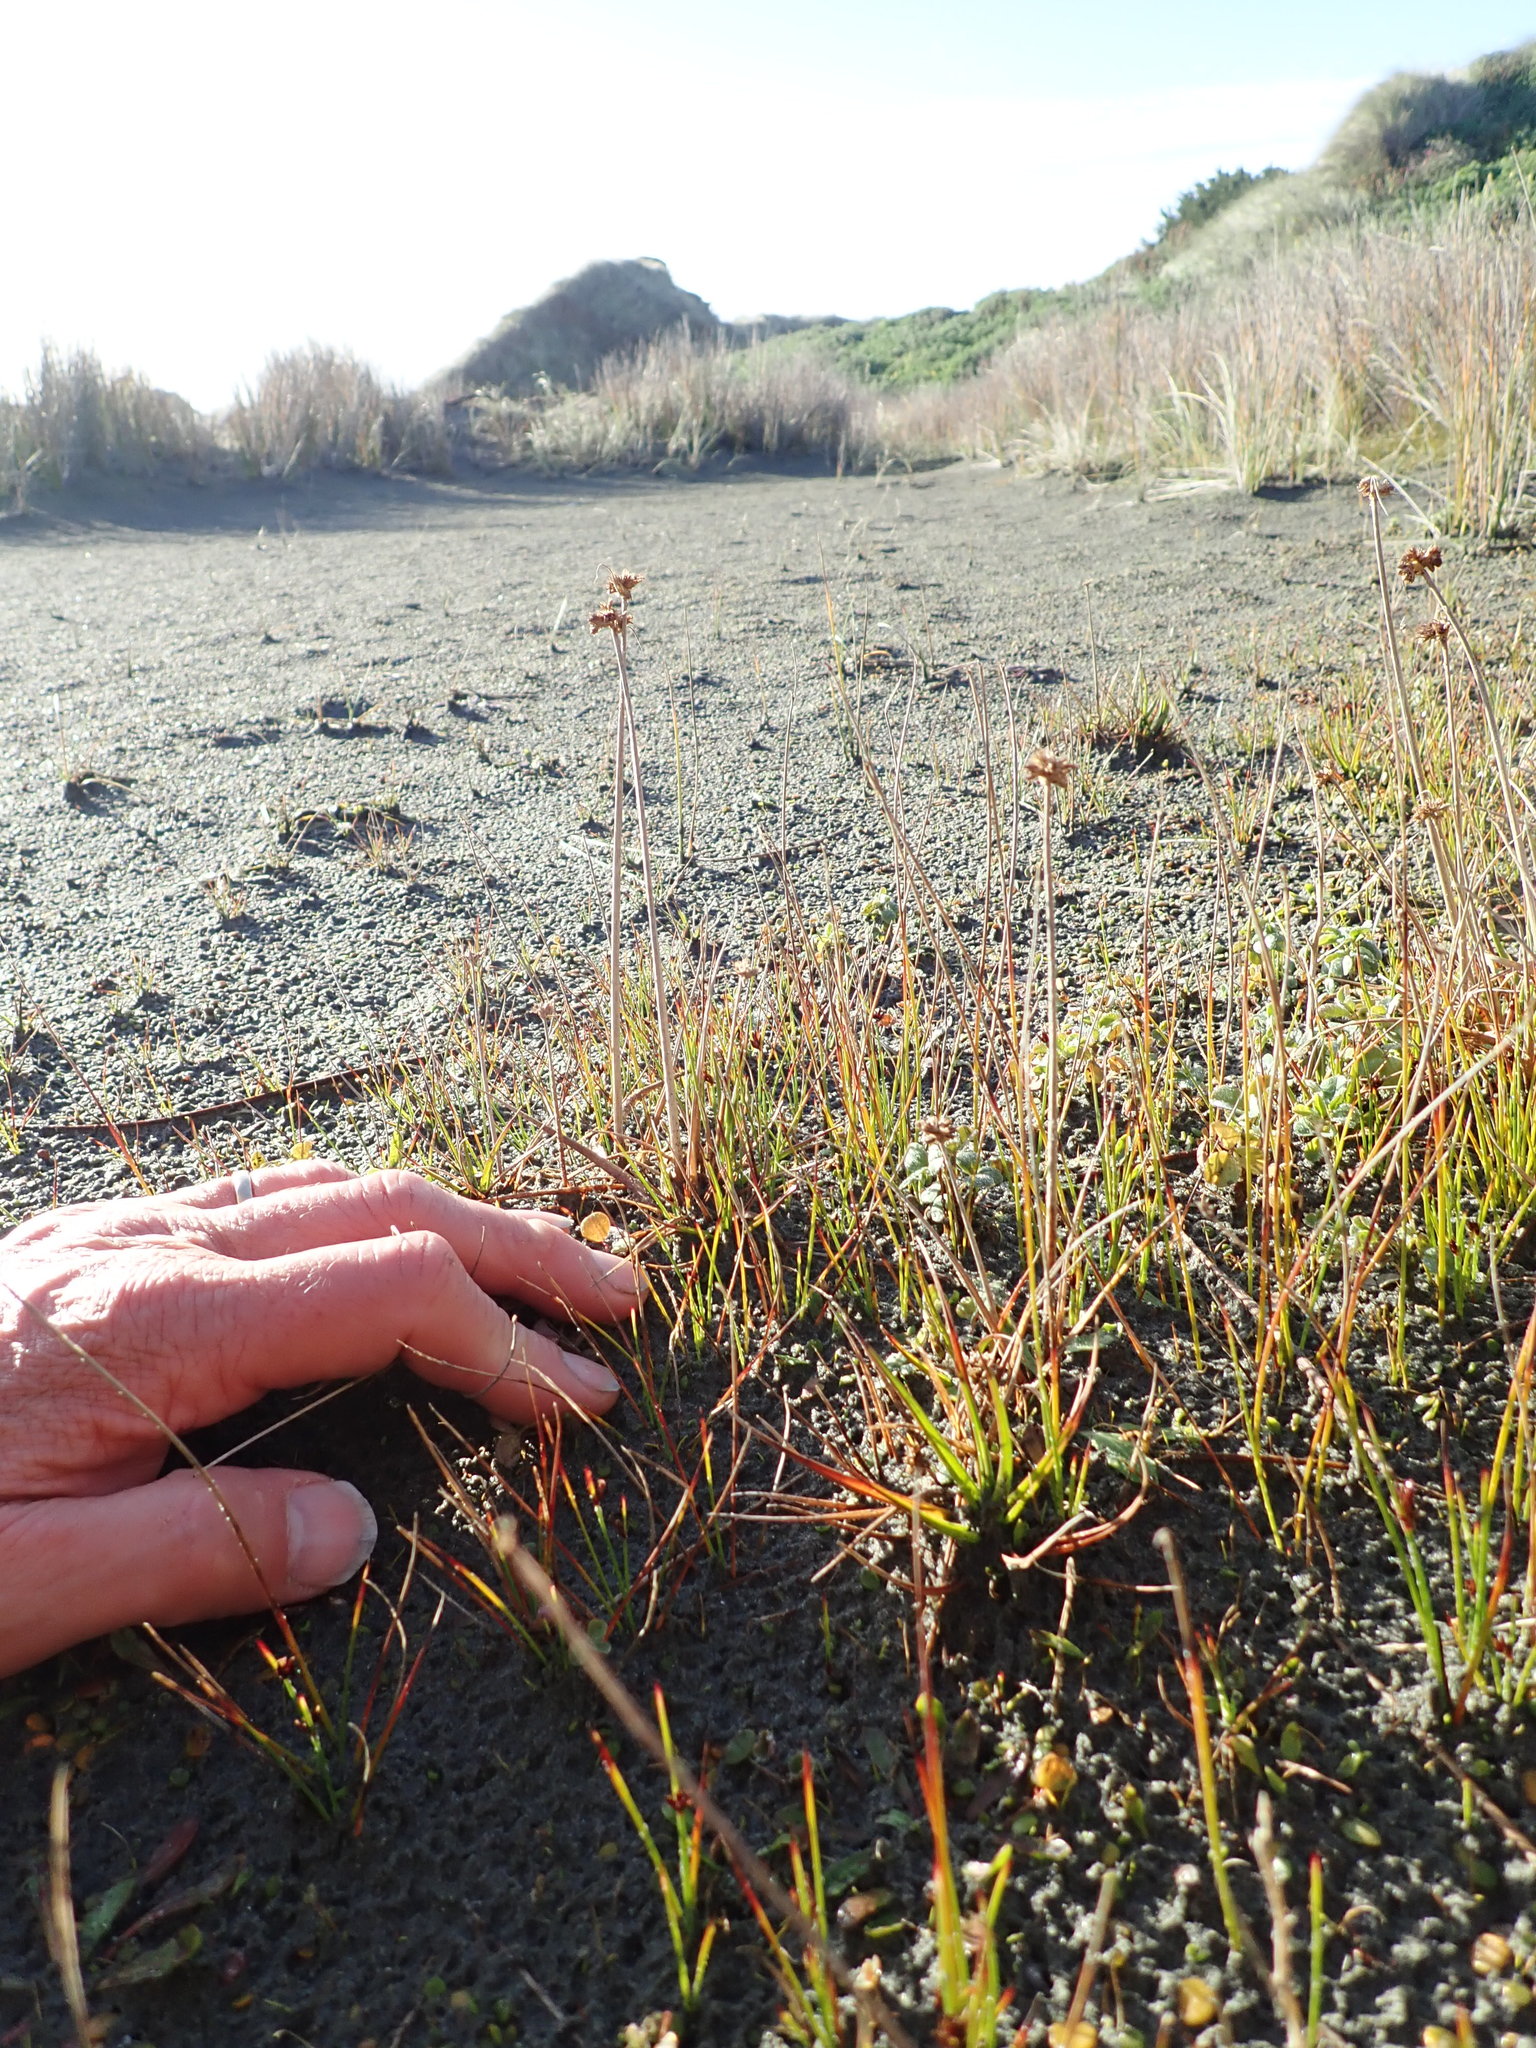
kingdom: Plantae
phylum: Tracheophyta
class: Liliopsida
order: Poales
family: Juncaceae
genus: Juncus
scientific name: Juncus caespiticius
